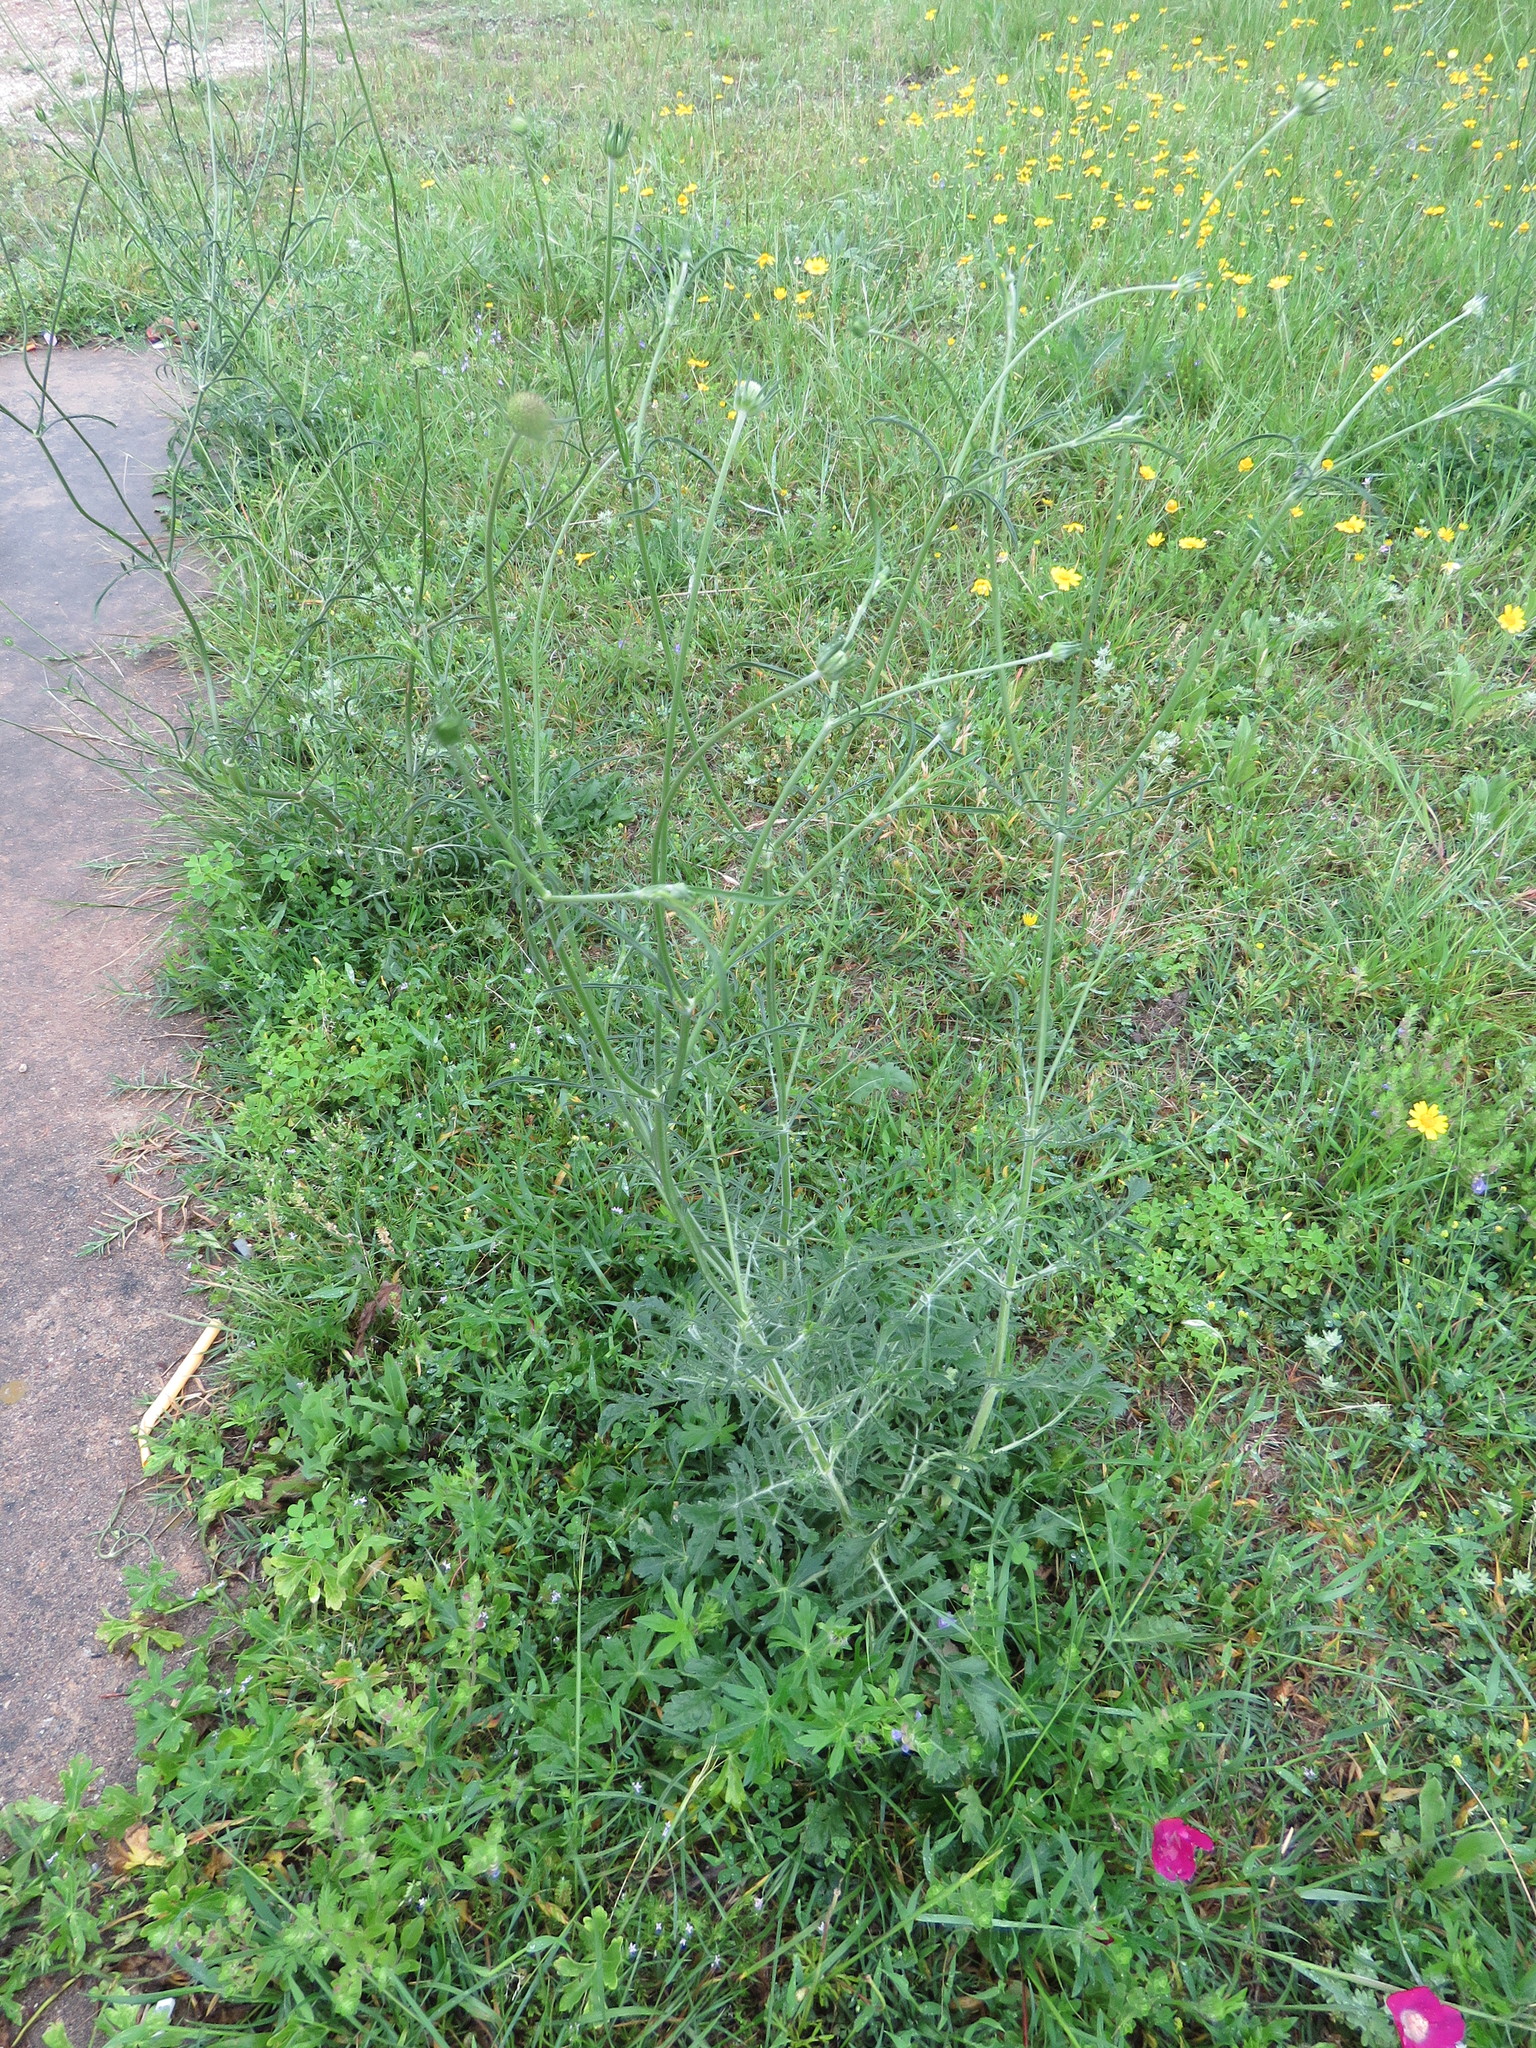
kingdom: Plantae
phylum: Tracheophyta
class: Magnoliopsida
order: Dipsacales
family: Caprifoliaceae
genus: Sixalix
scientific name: Sixalix atropurpurea
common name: Sweet scabious
